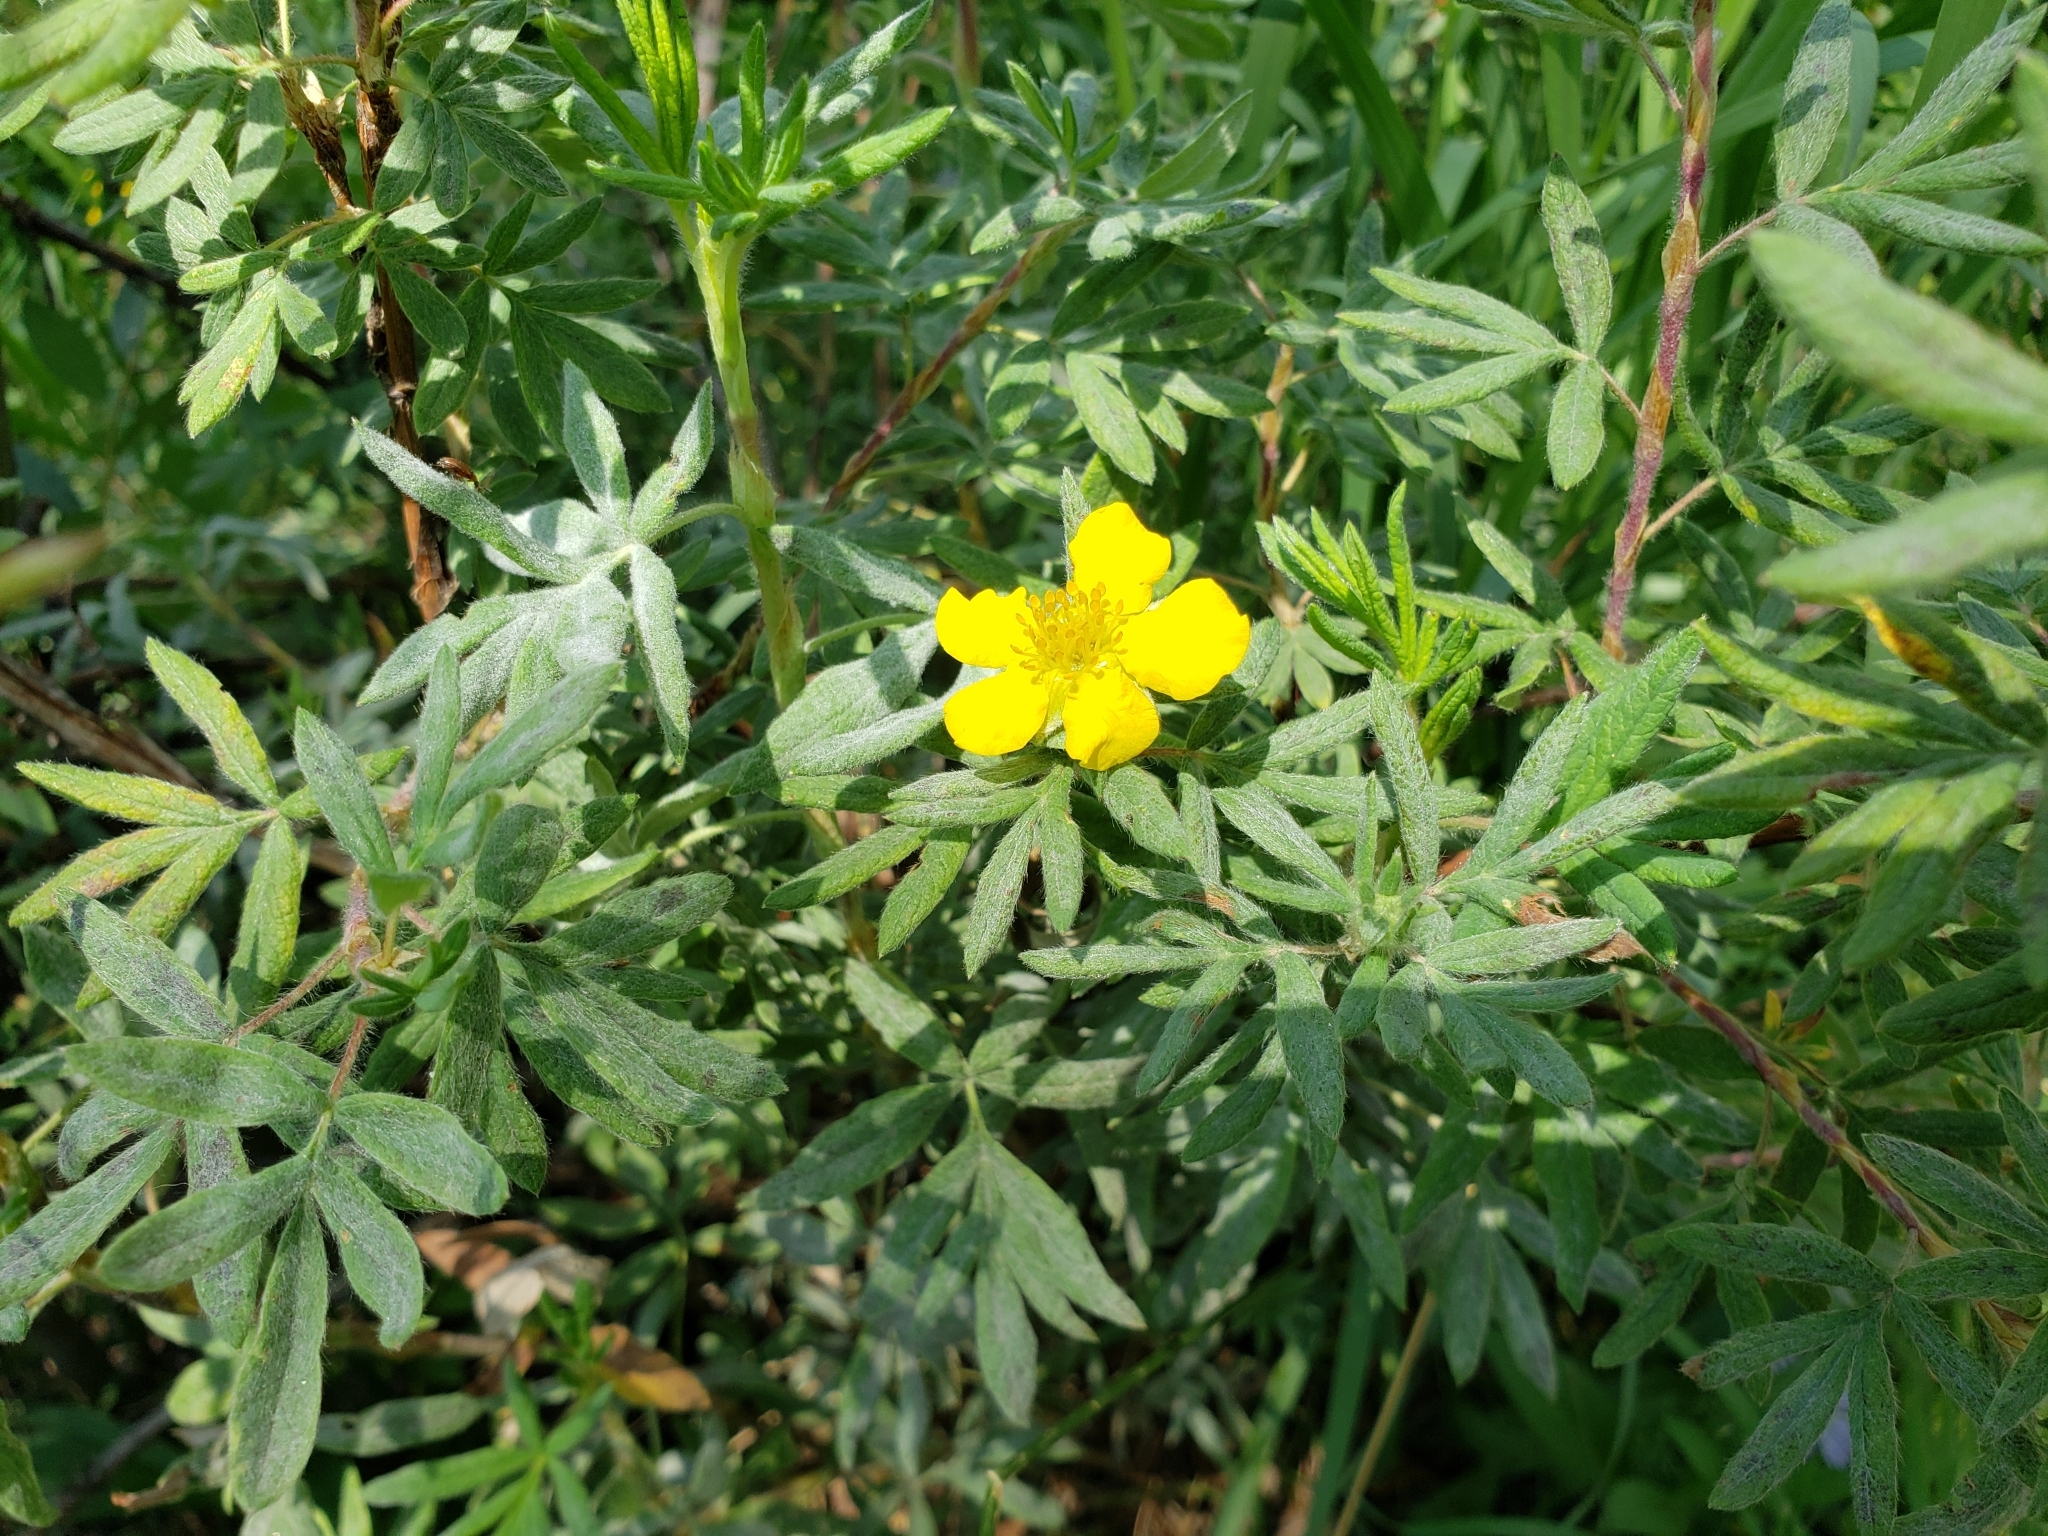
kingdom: Plantae
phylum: Tracheophyta
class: Magnoliopsida
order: Rosales
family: Rosaceae
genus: Dasiphora
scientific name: Dasiphora fruticosa
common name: Shrubby cinquefoil
